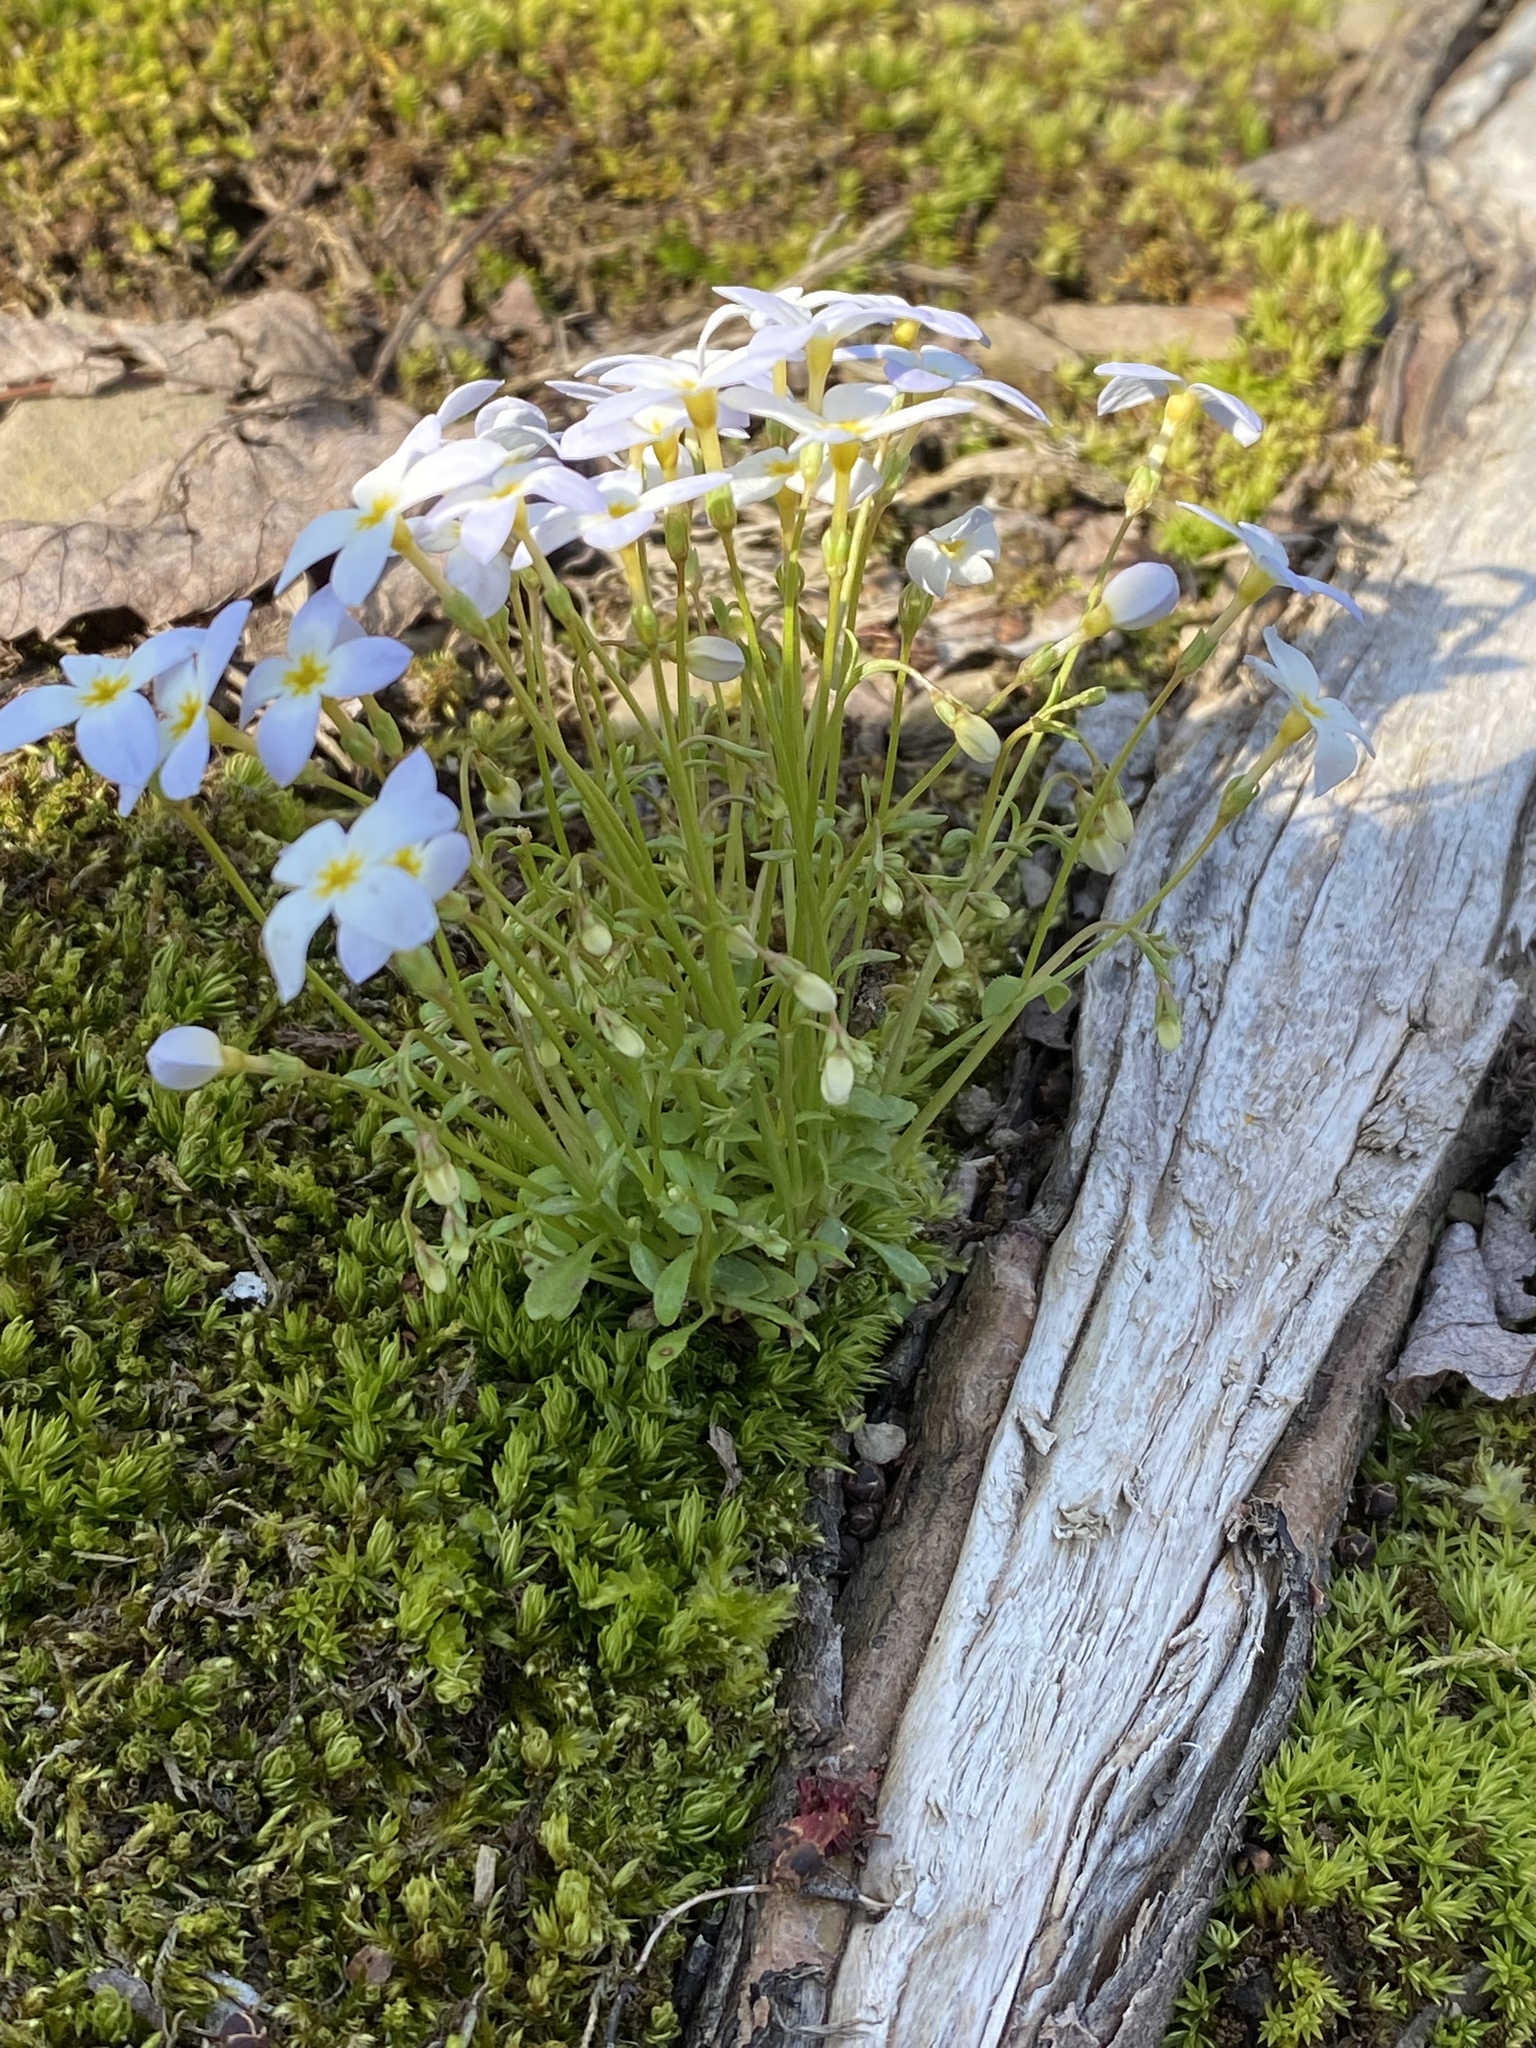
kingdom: Plantae
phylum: Tracheophyta
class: Magnoliopsida
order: Gentianales
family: Rubiaceae
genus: Houstonia
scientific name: Houstonia caerulea
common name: Bluets
